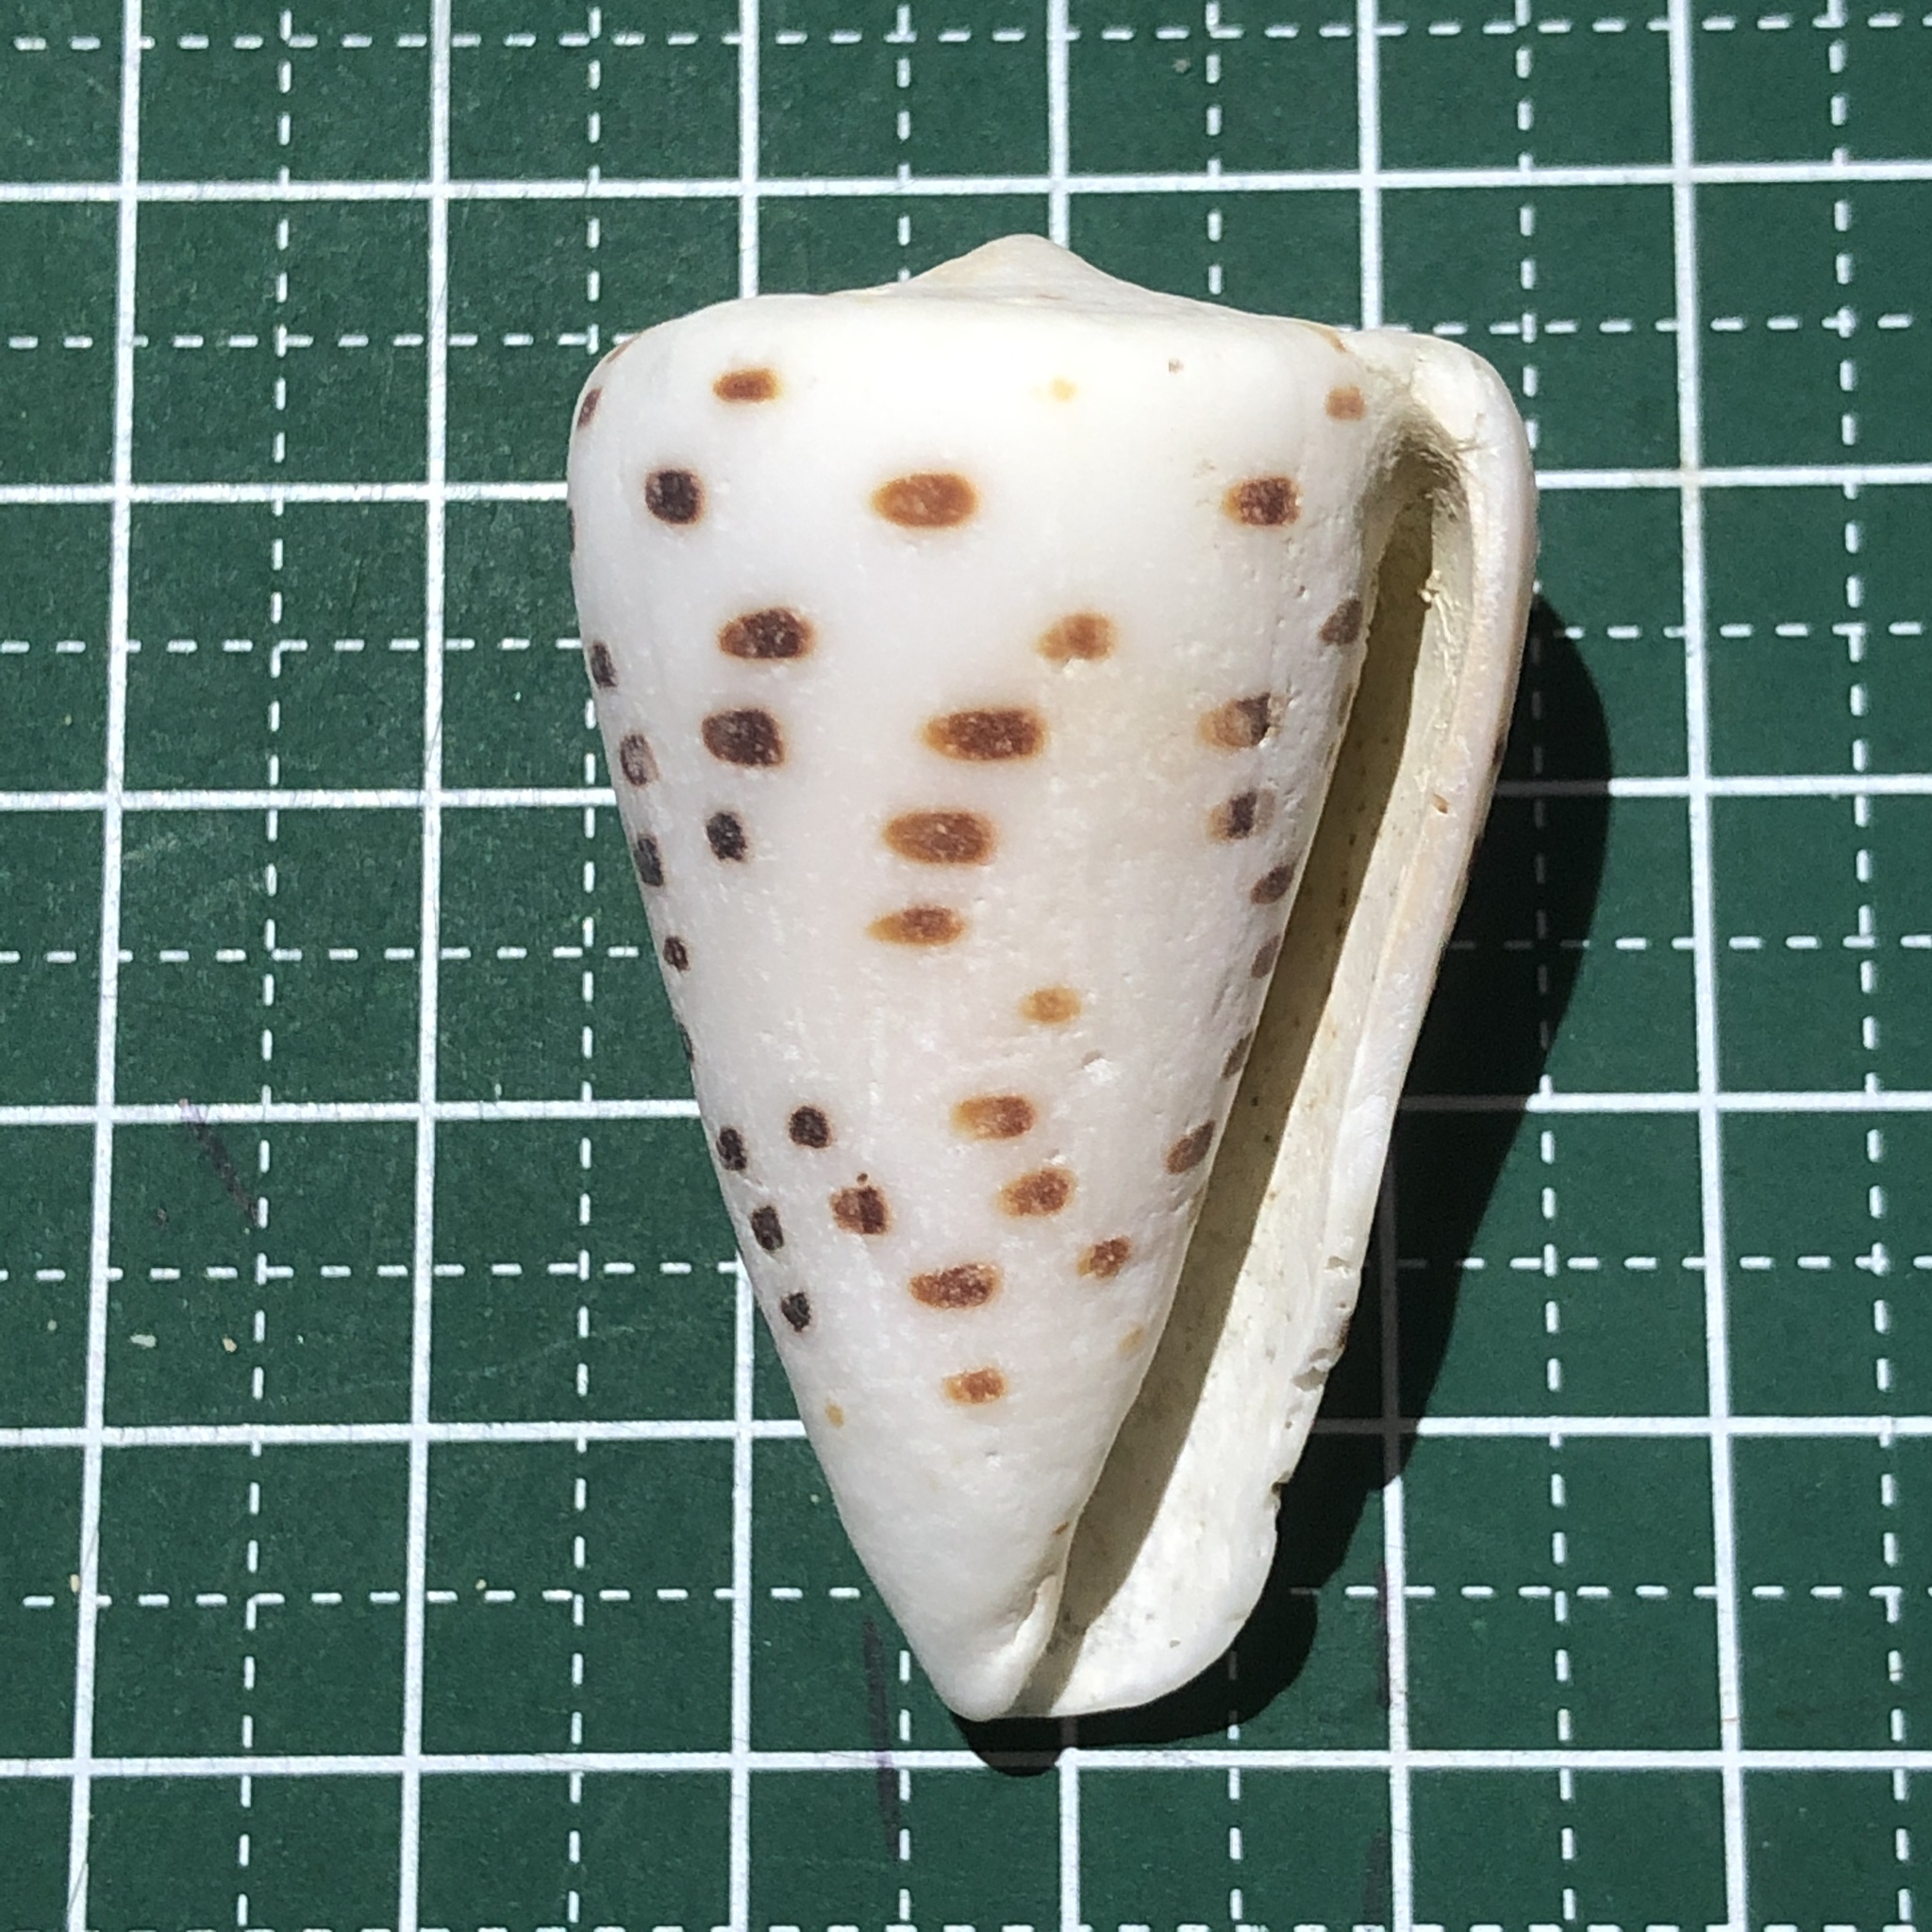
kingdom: Animalia
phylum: Mollusca
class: Gastropoda
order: Neogastropoda
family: Conidae
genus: Conus
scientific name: Conus eburneus
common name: Ivory cone
